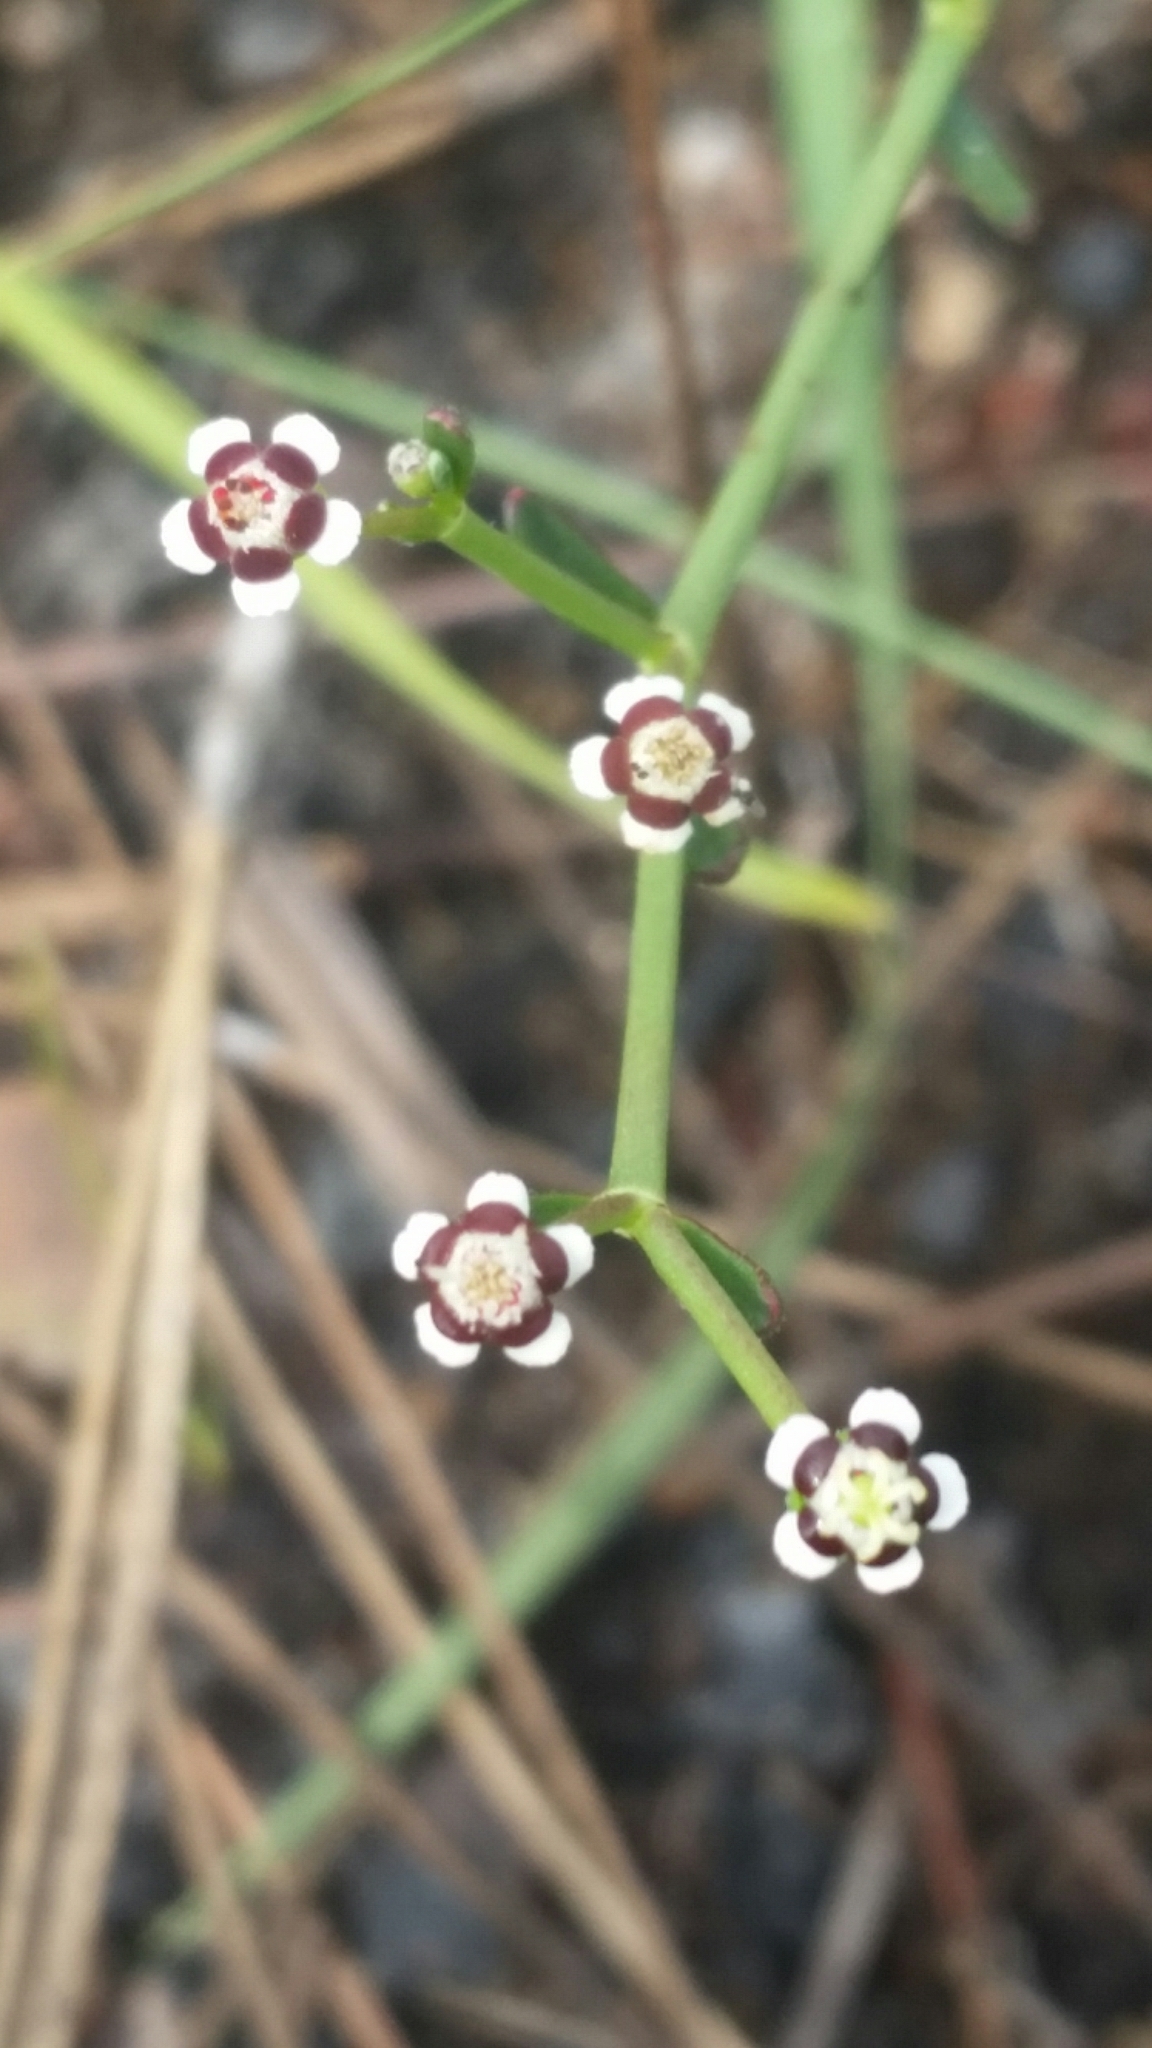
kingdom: Plantae
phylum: Tracheophyta
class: Magnoliopsida
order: Malpighiales
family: Euphorbiaceae
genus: Euphorbia
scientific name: Euphorbia polyphylla
